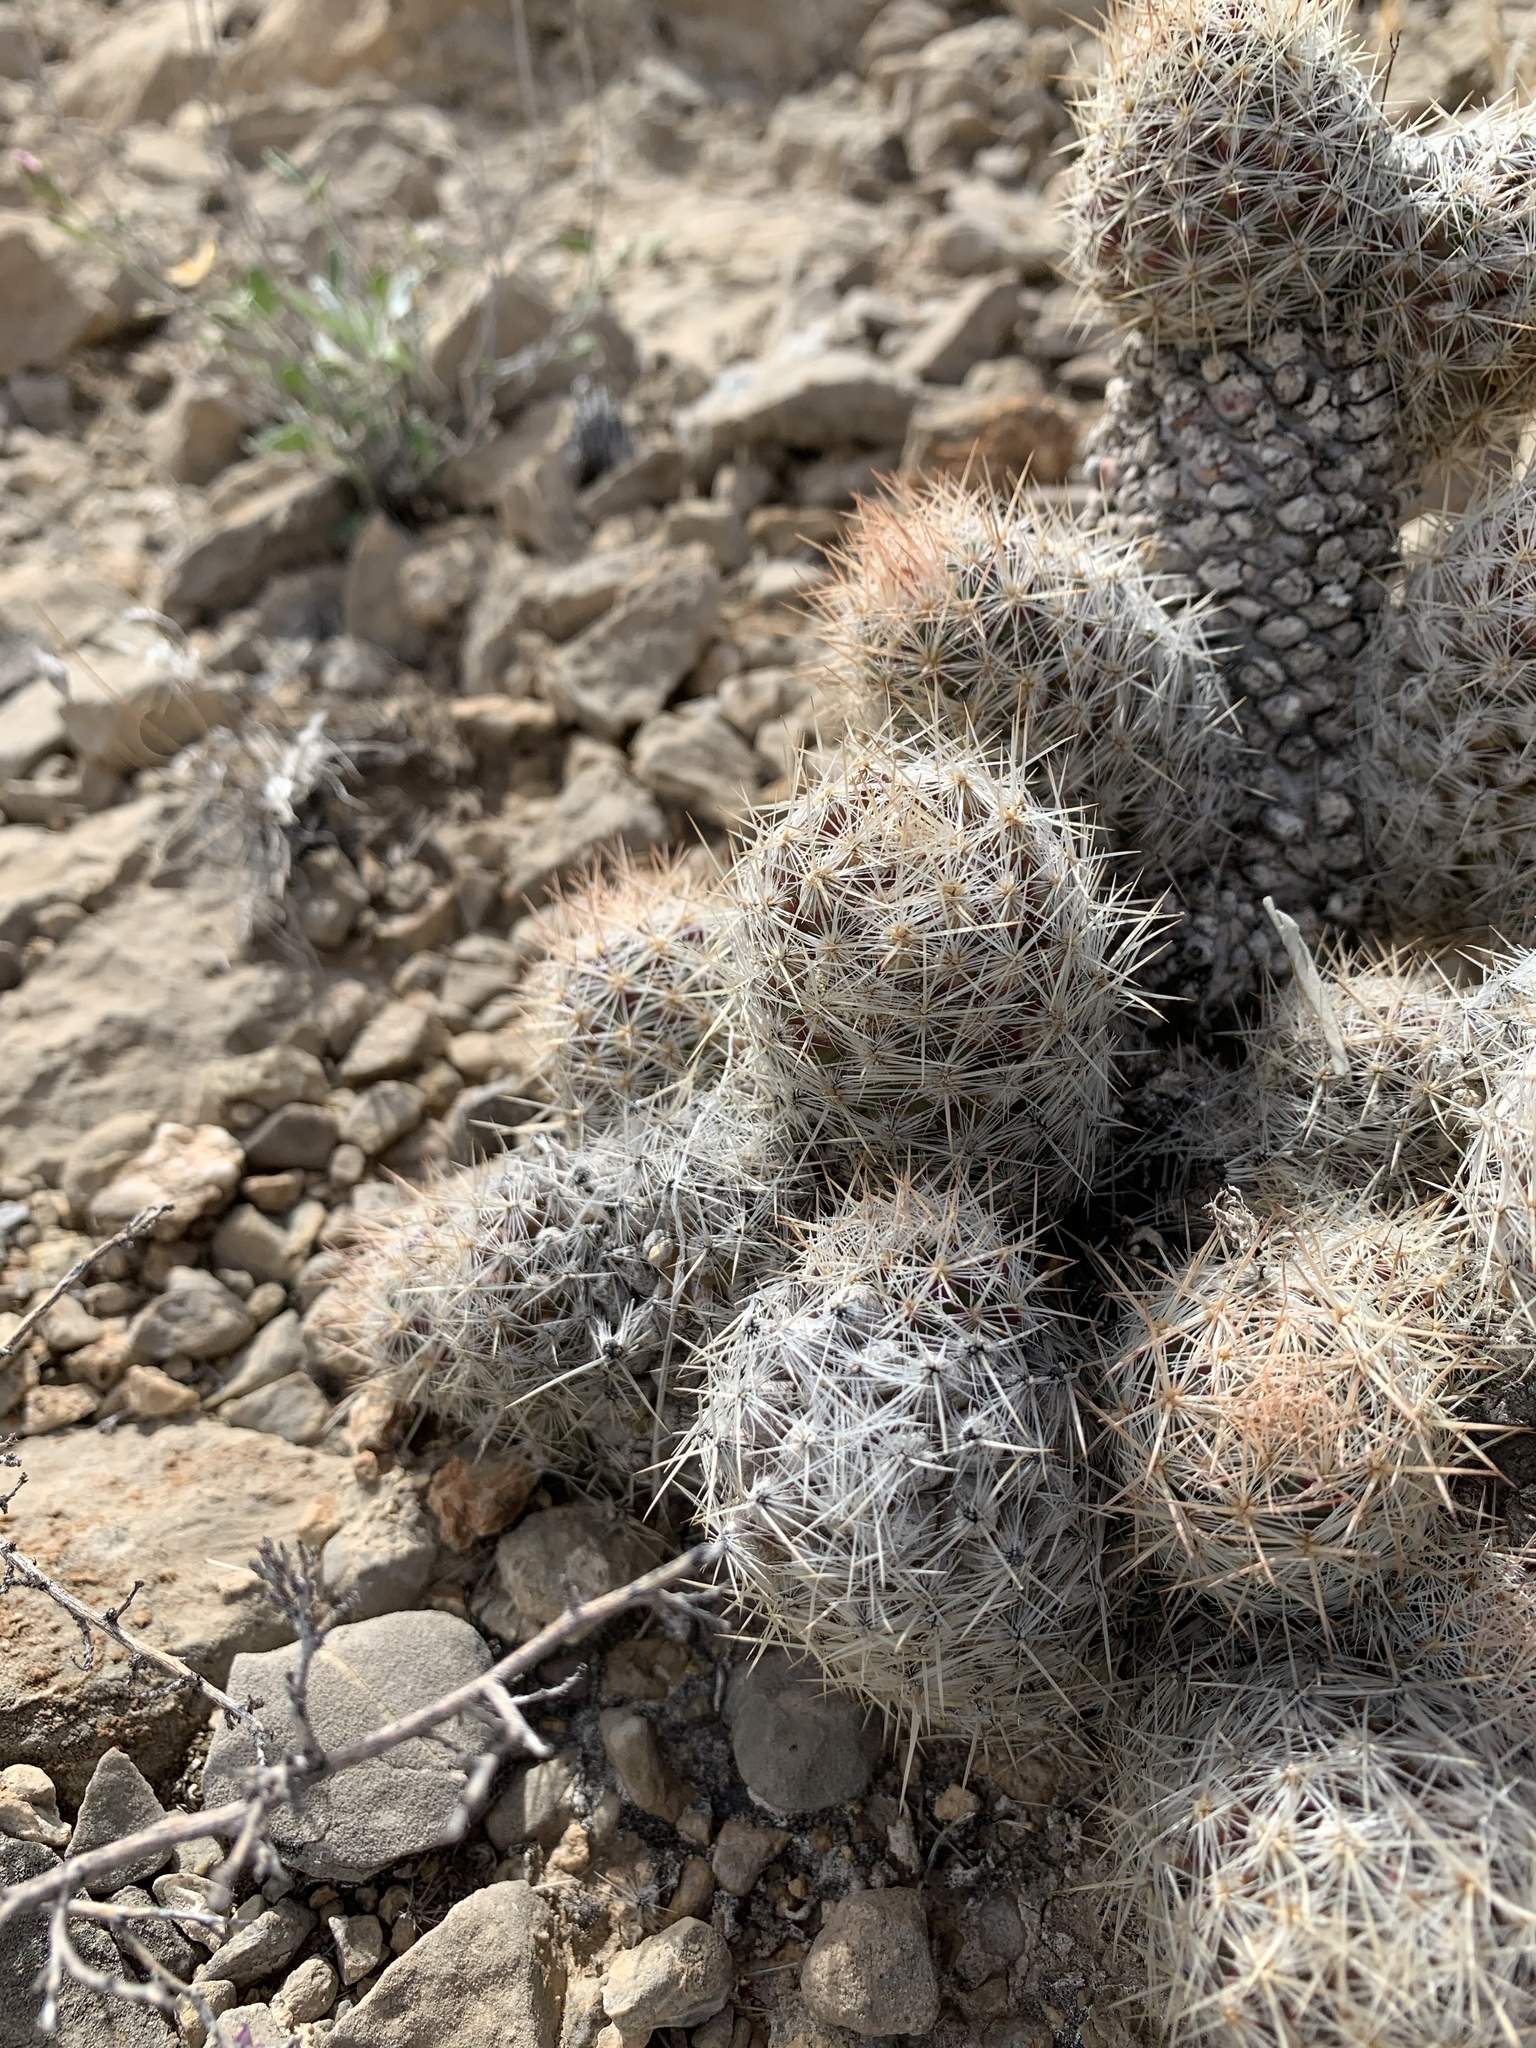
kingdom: Plantae
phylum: Tracheophyta
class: Magnoliopsida
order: Caryophyllales
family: Cactaceae
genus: Pelecyphora
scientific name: Pelecyphora tuberculosa
